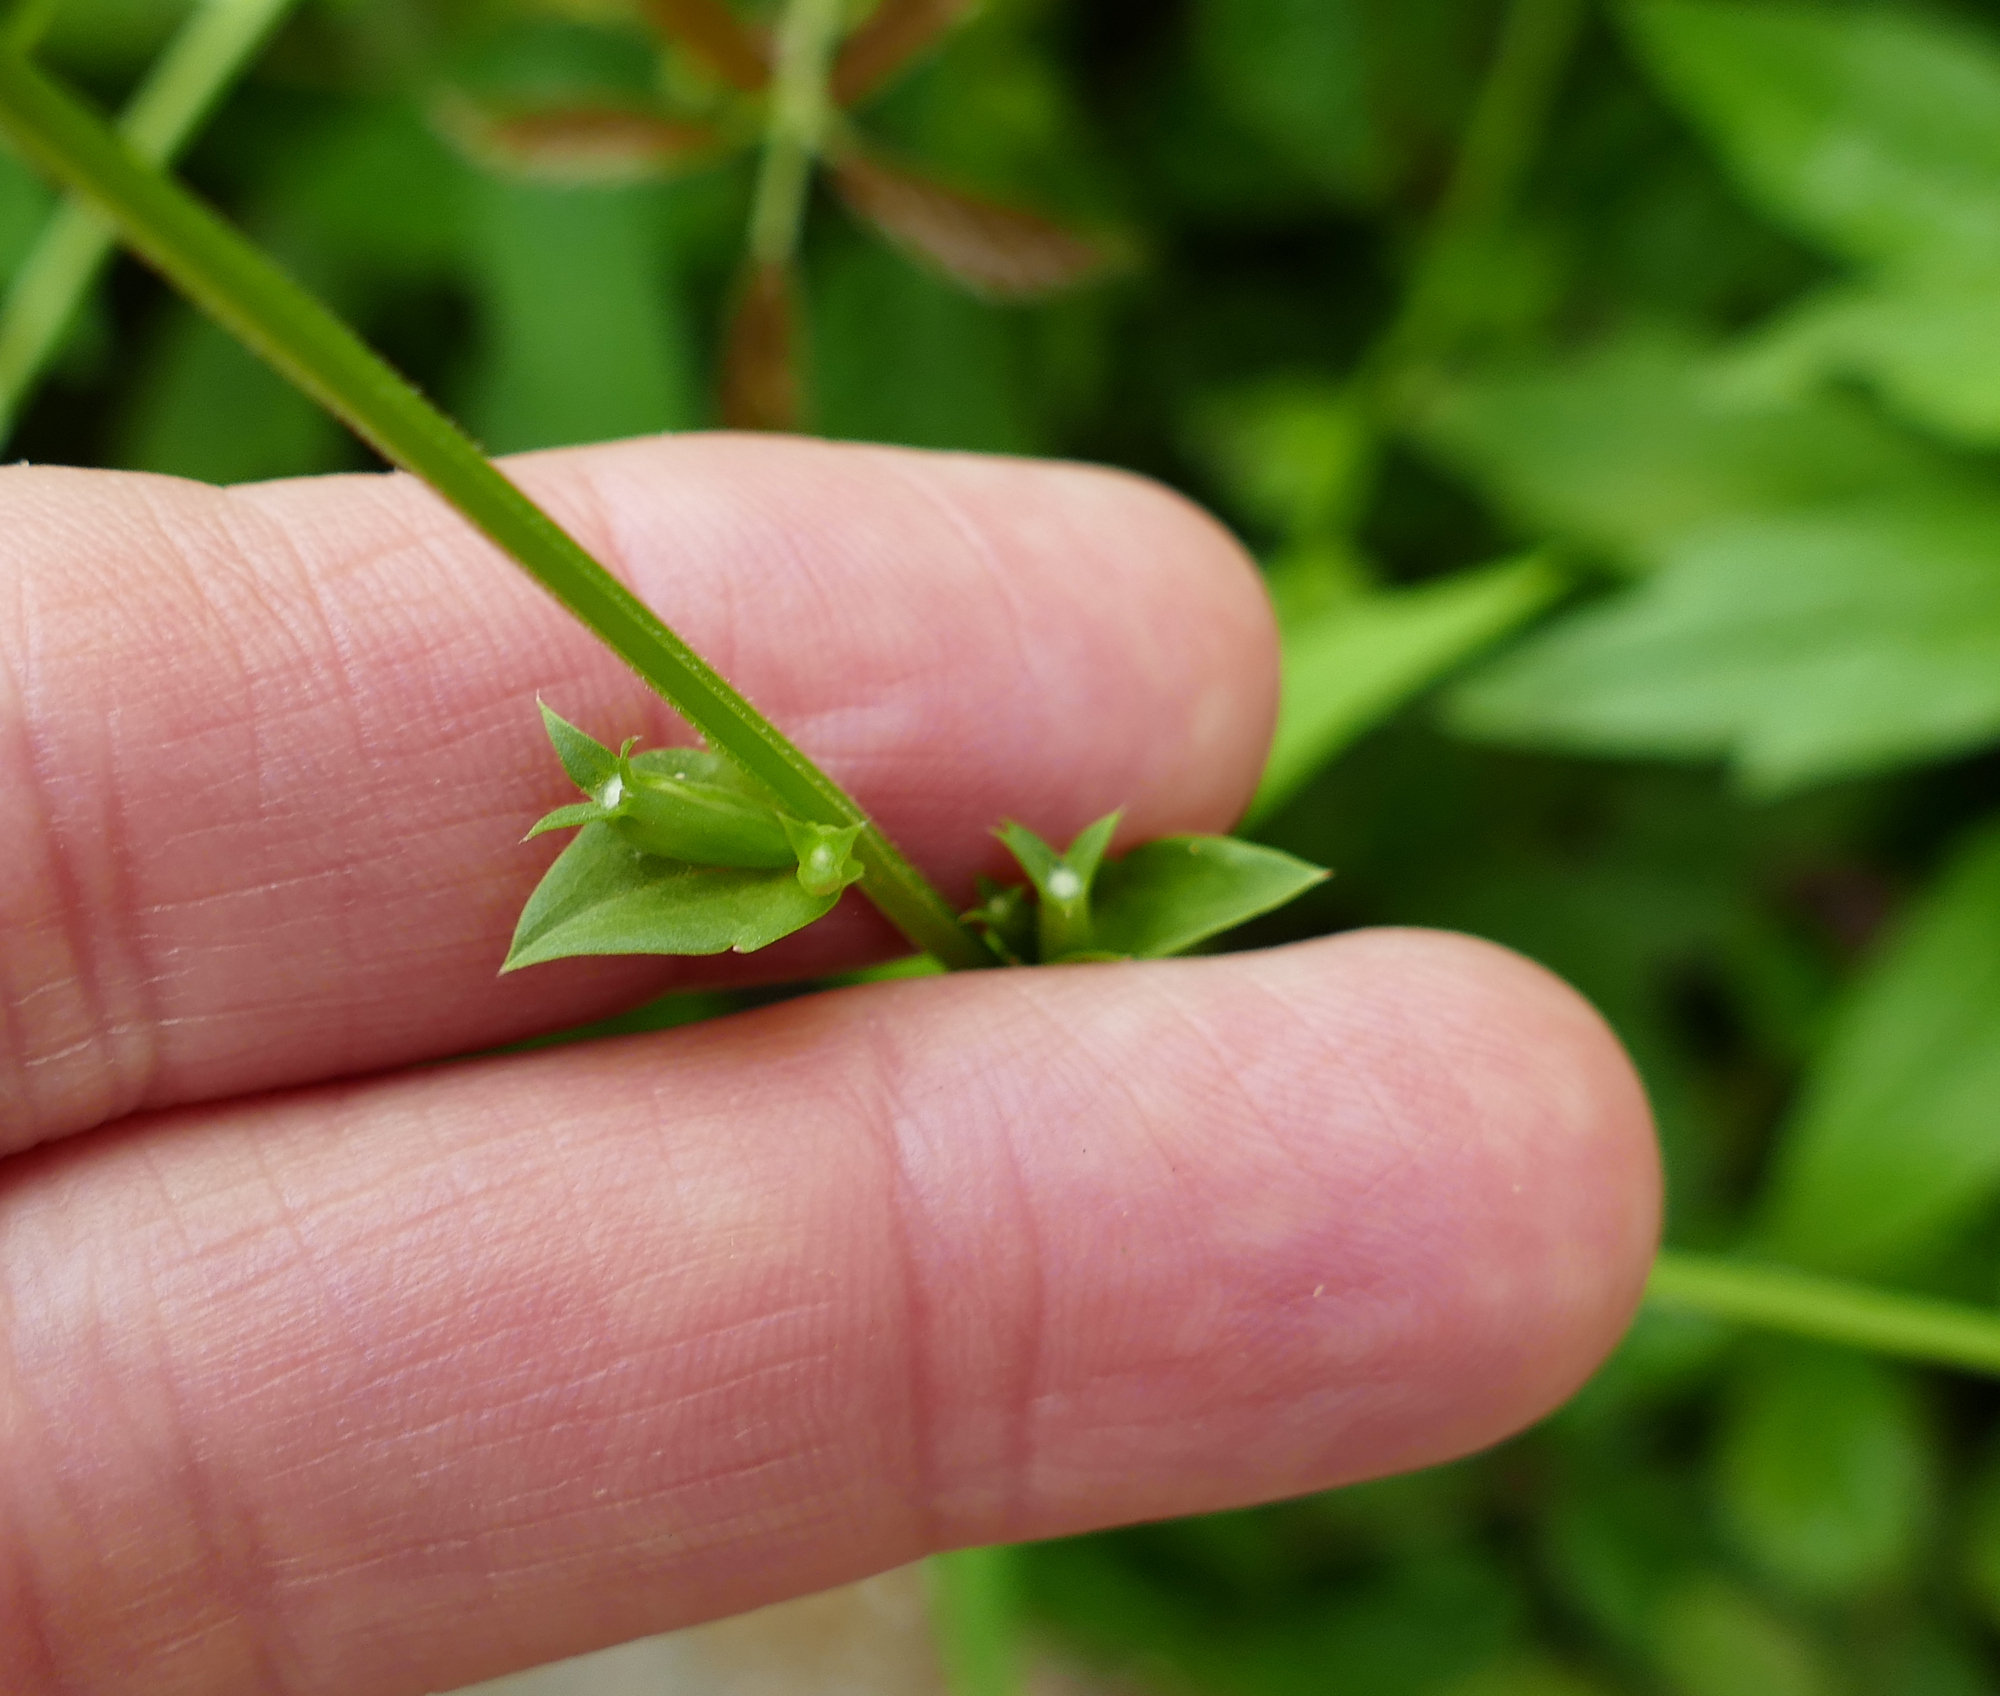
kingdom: Plantae
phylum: Tracheophyta
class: Magnoliopsida
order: Asterales
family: Campanulaceae
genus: Triodanis
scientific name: Triodanis biflora
